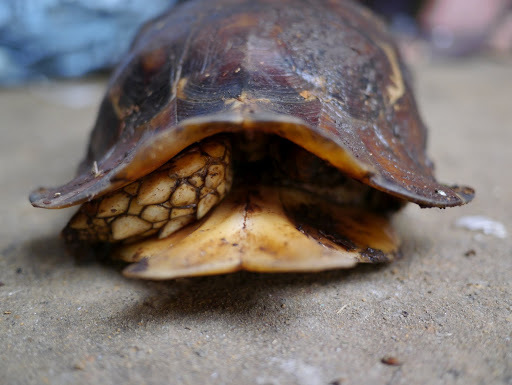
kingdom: Animalia
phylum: Chordata
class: Testudines
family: Testudinidae
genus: Kinixys
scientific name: Kinixys erosa
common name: Serrated hinge-back tortoise
